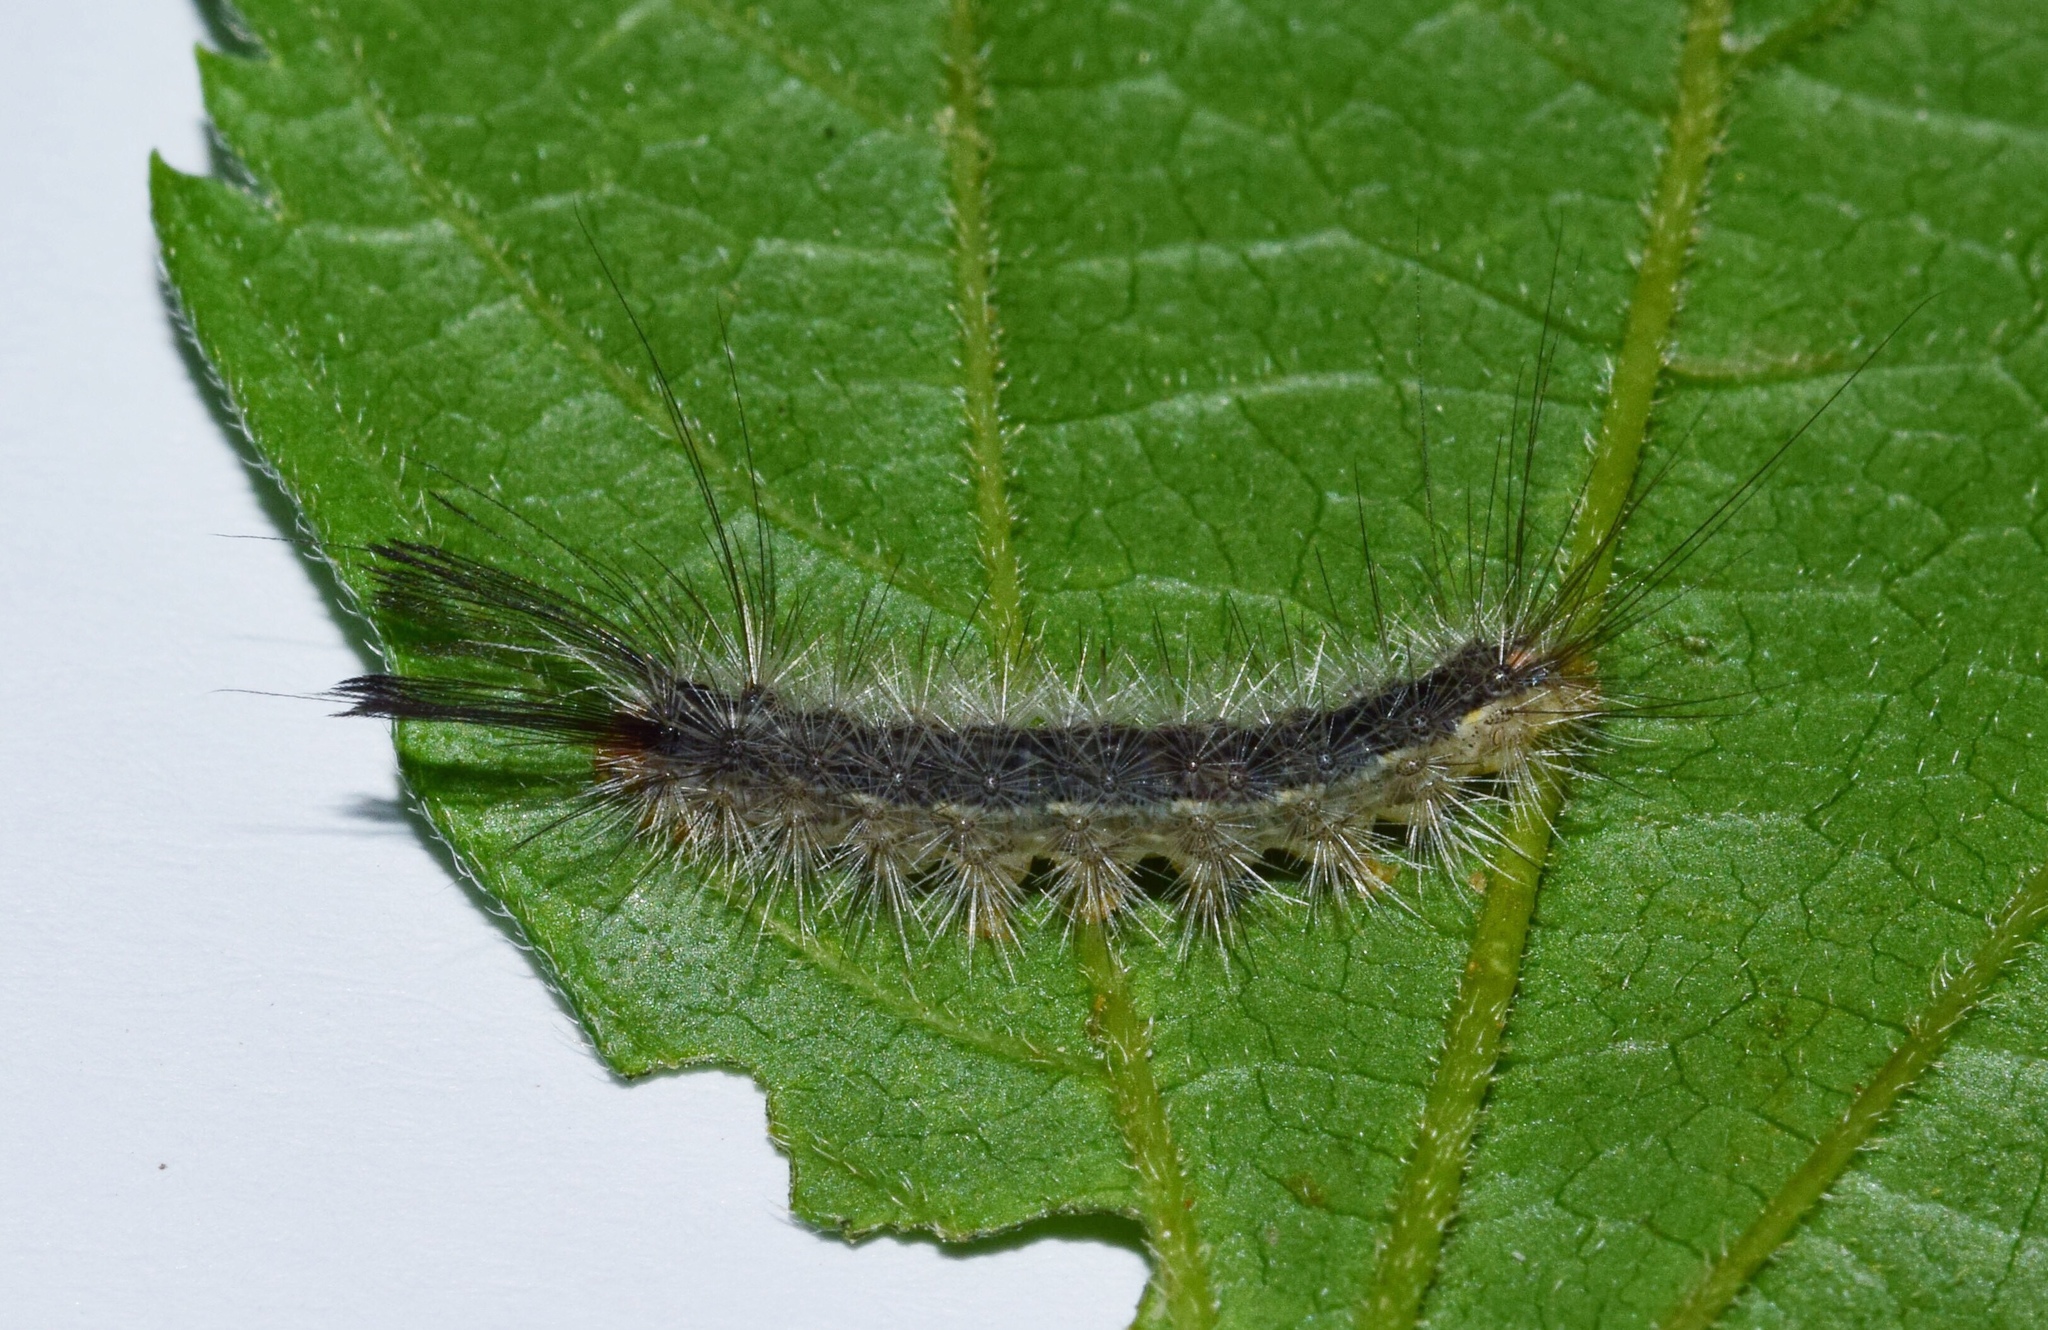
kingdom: Animalia
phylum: Arthropoda
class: Insecta
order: Lepidoptera
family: Erebidae
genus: Galtara
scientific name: Galtara rostrata
